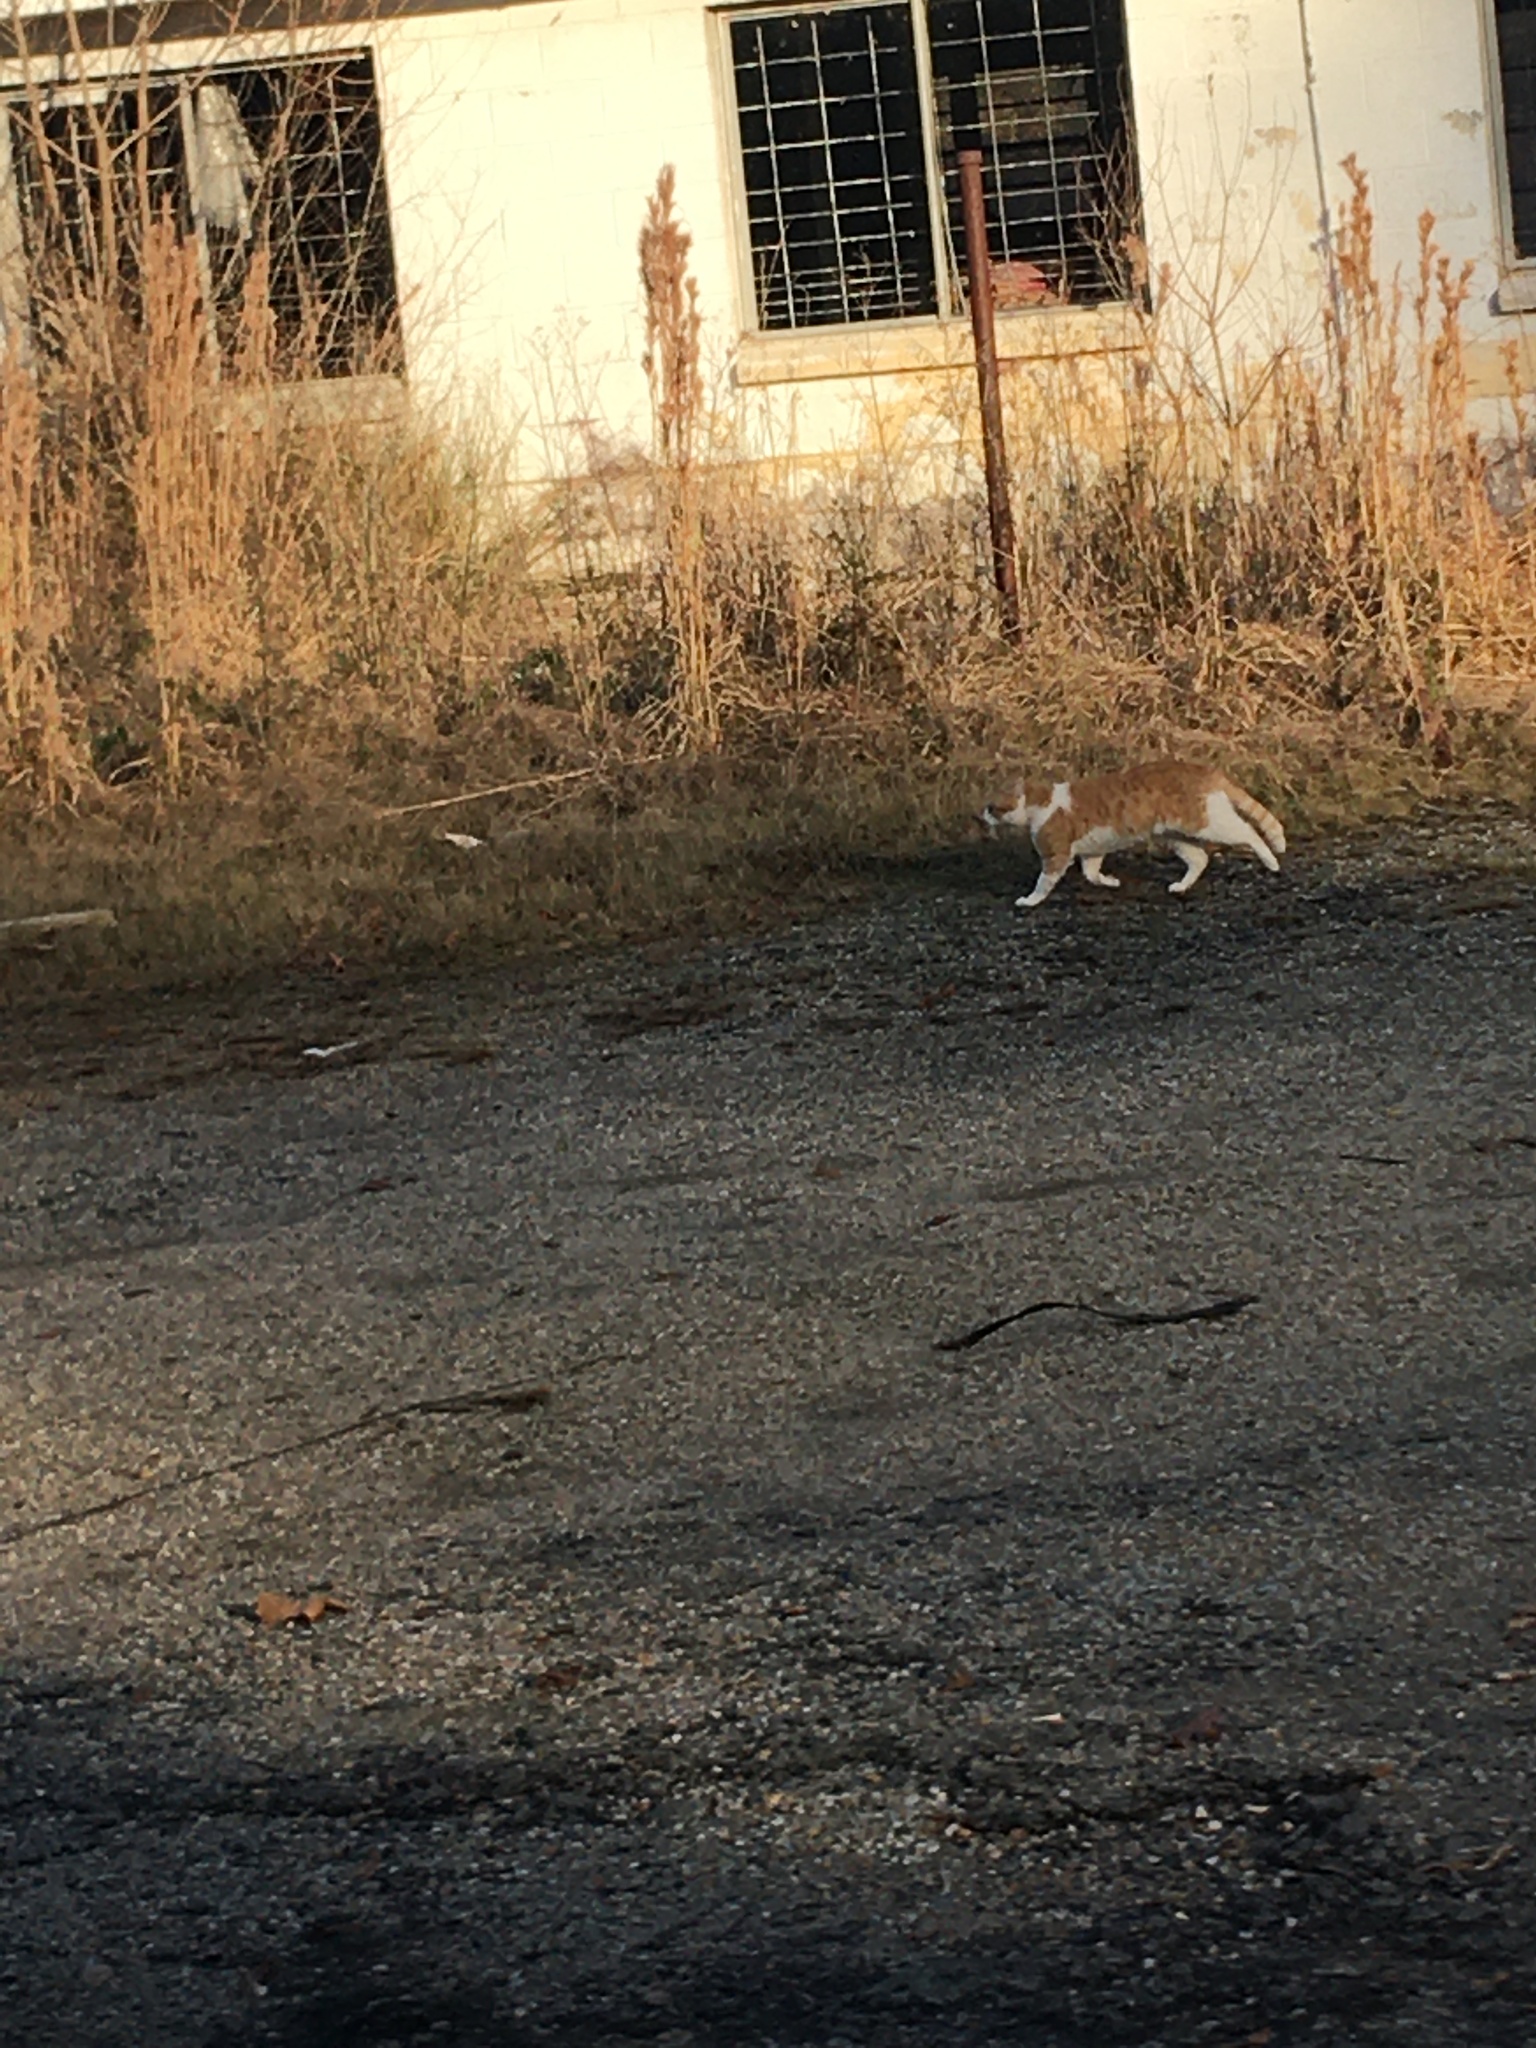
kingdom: Animalia
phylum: Chordata
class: Mammalia
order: Carnivora
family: Felidae
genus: Felis
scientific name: Felis catus
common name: Domestic cat
